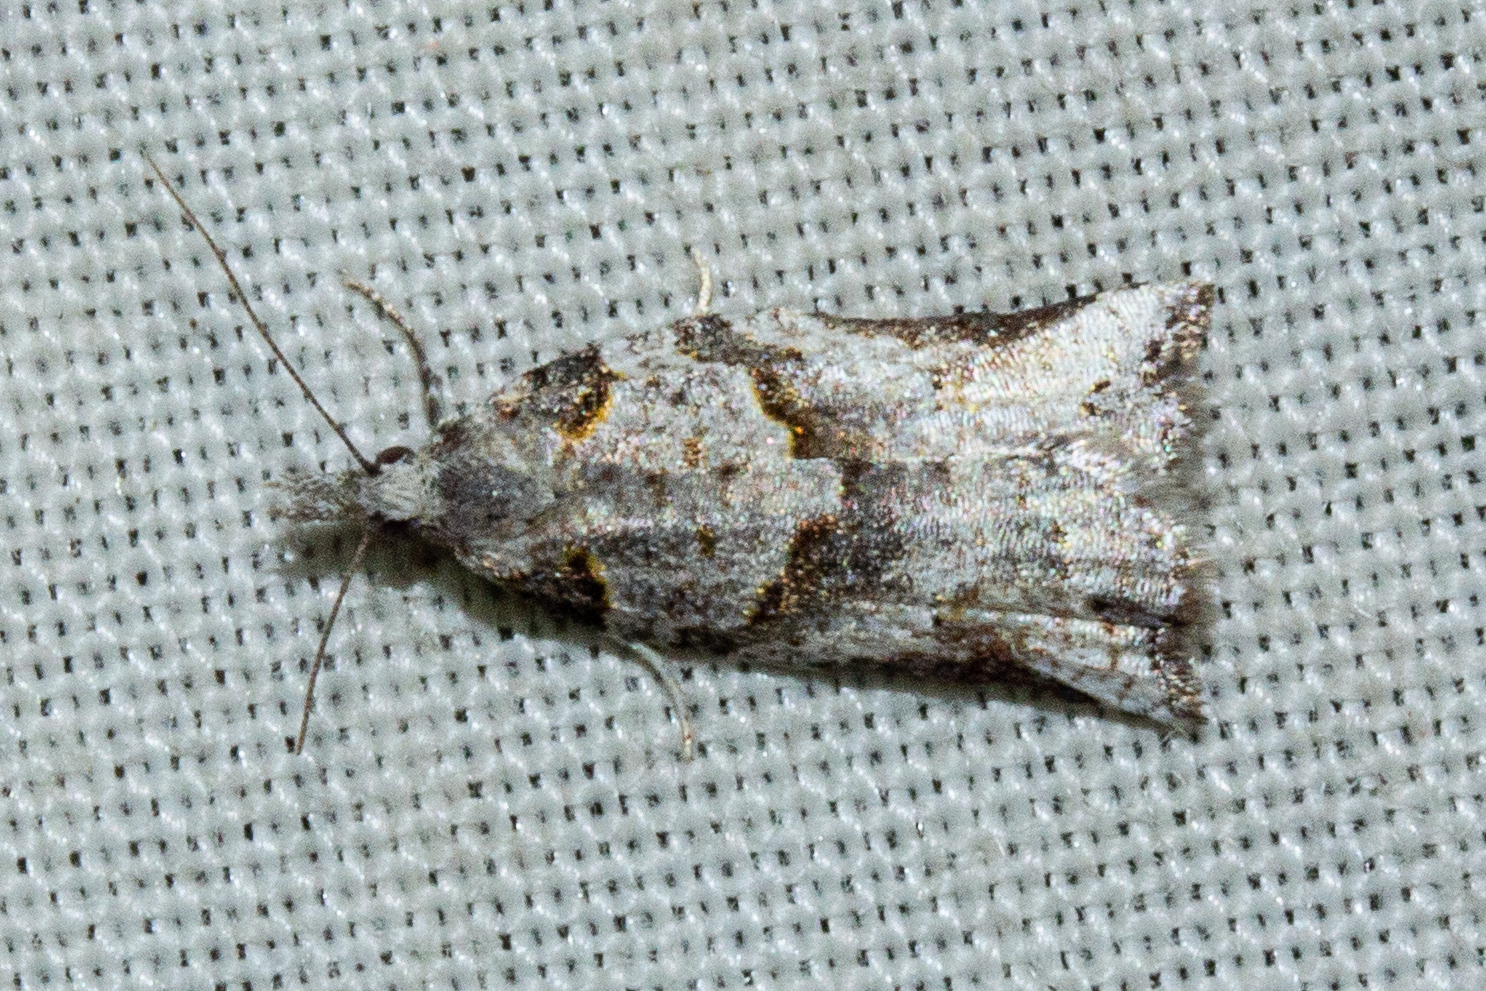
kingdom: Animalia
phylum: Arthropoda
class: Insecta
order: Lepidoptera
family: Tortricidae
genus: Harmologa
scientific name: Harmologa amplexana
